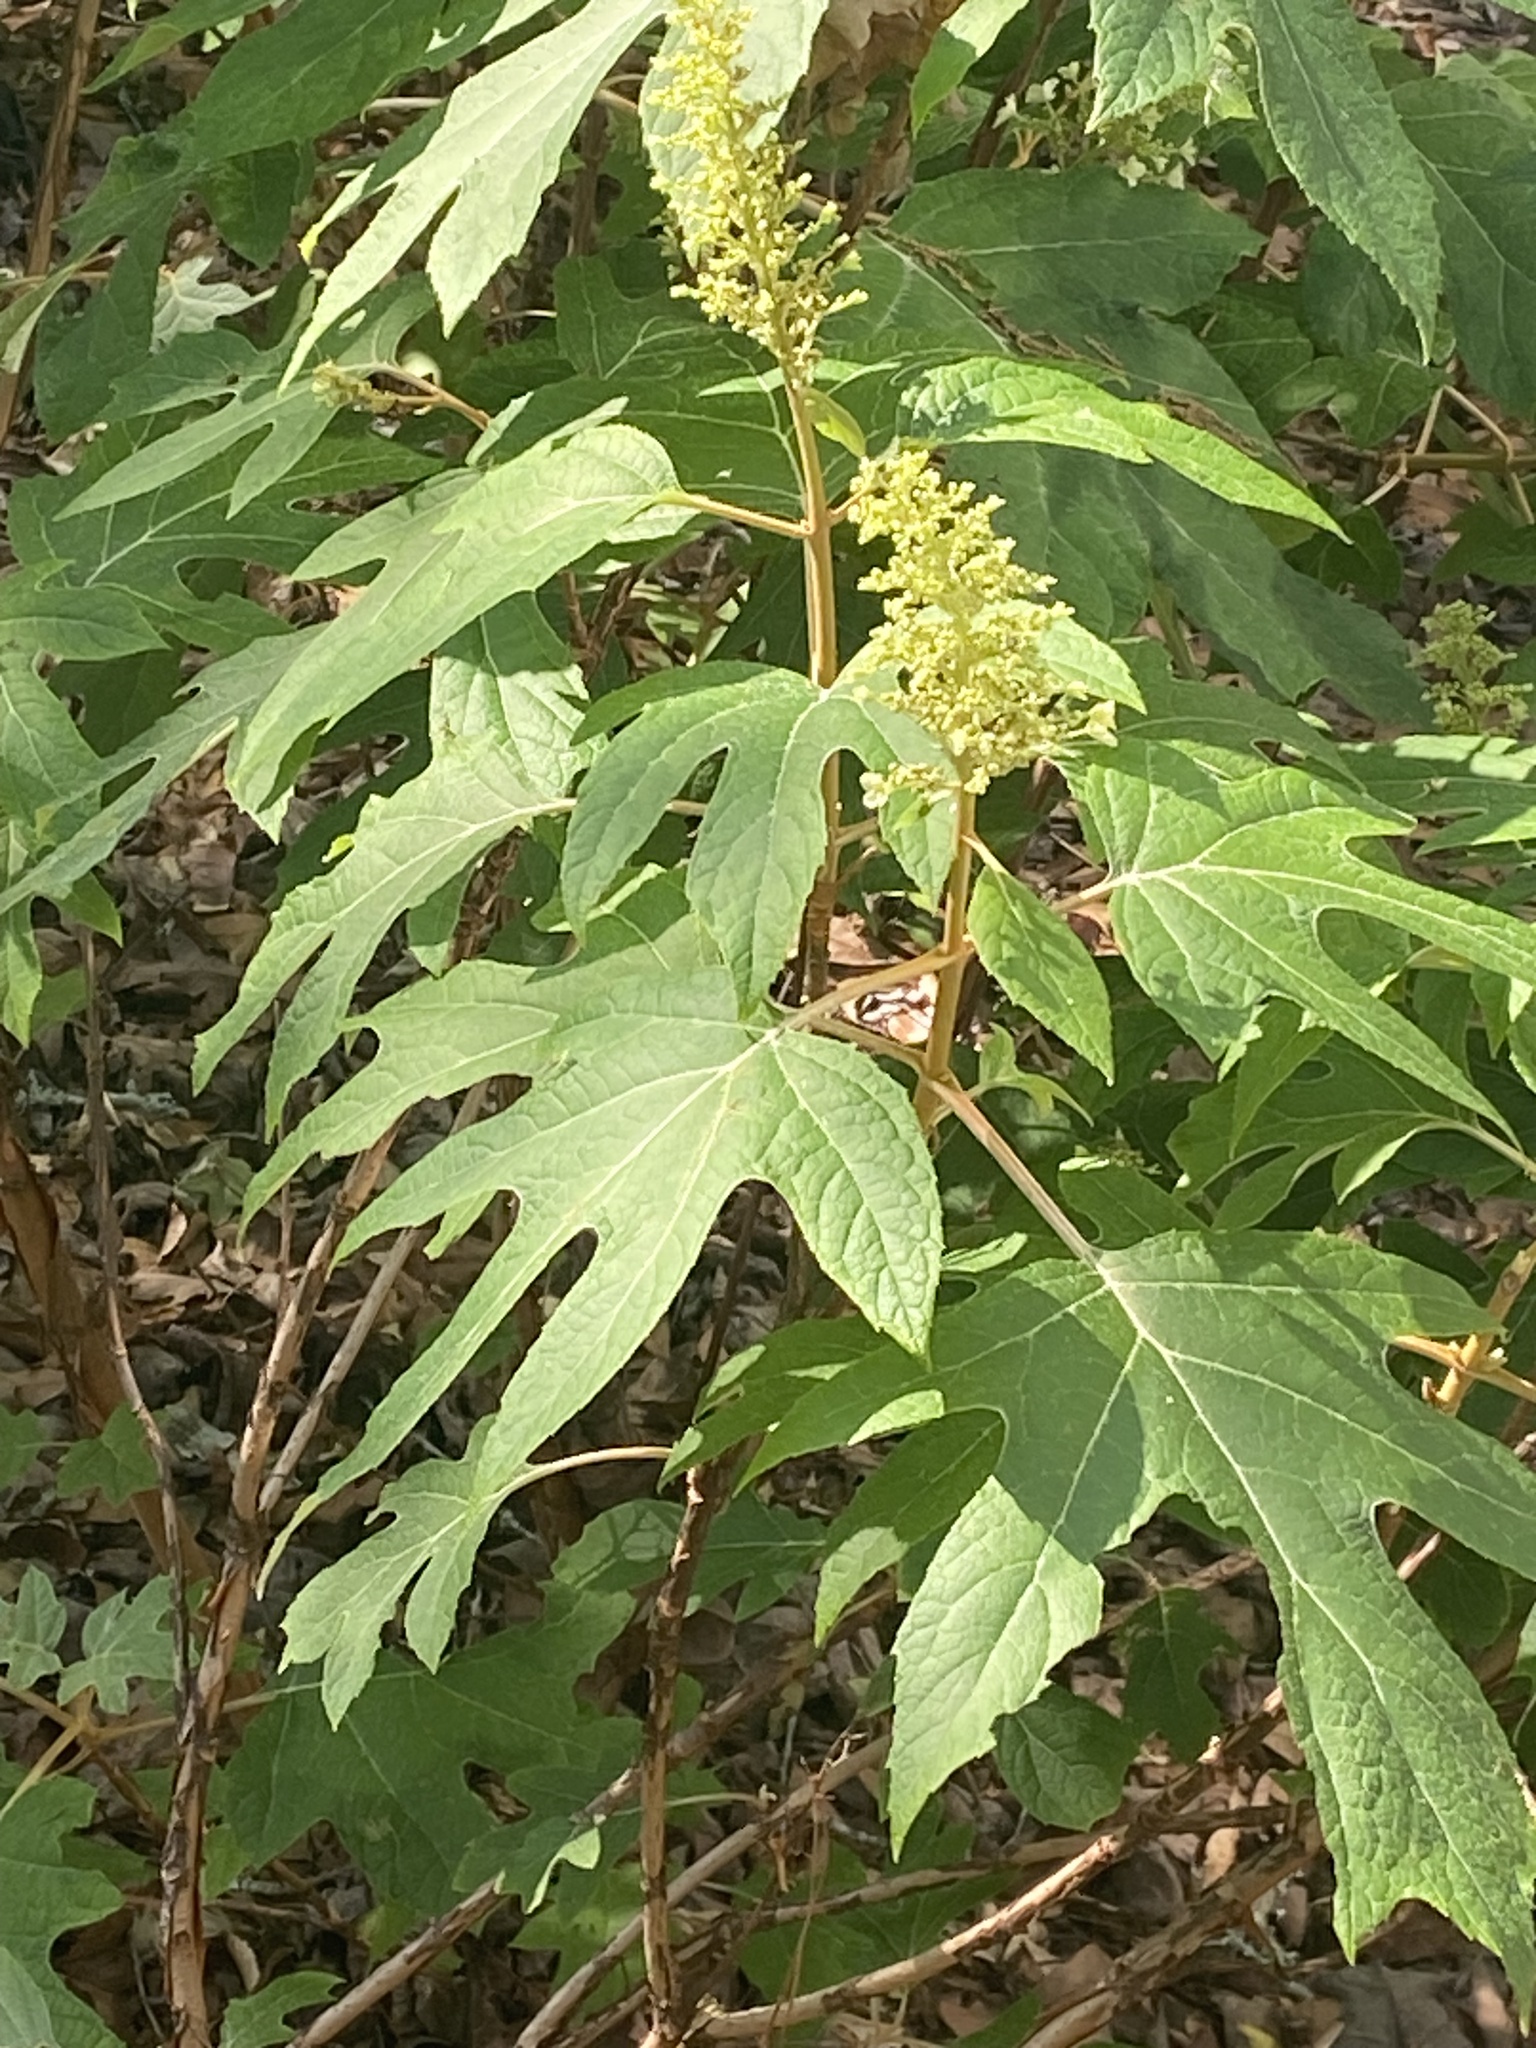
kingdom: Plantae
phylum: Tracheophyta
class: Magnoliopsida
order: Cornales
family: Hydrangeaceae
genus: Hydrangea
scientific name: Hydrangea quercifolia
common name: Oak-leaf hydrangea
